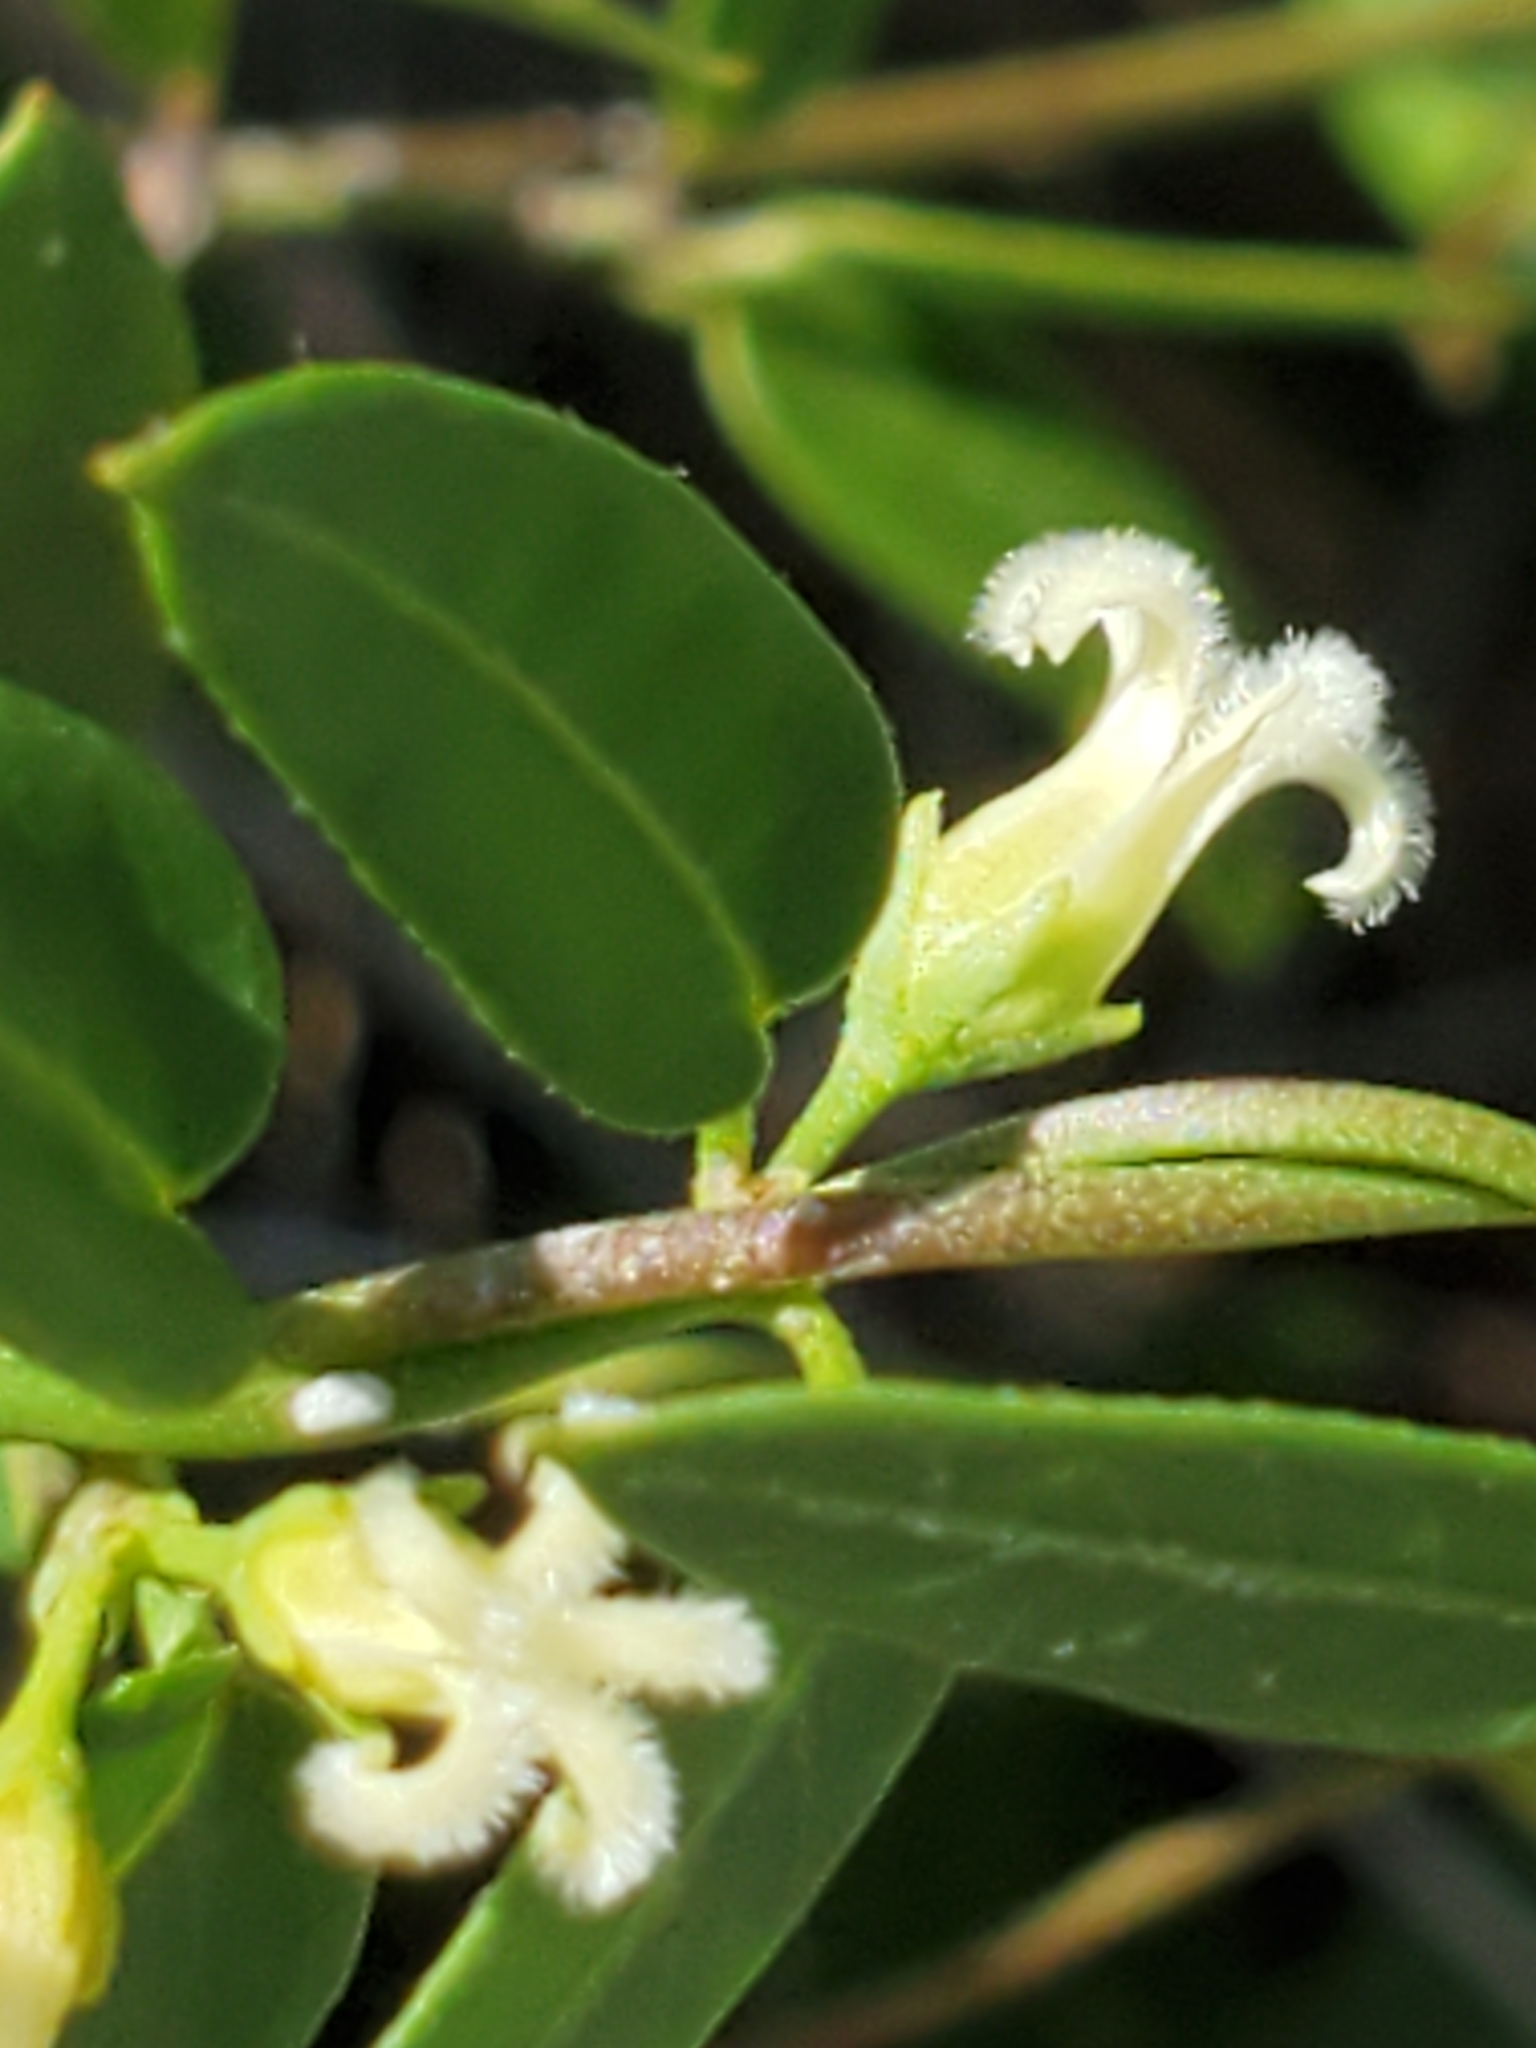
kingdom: Plantae
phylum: Tracheophyta
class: Magnoliopsida
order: Gentianales
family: Apocynaceae
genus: Metastelma
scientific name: Metastelma barbigerum
